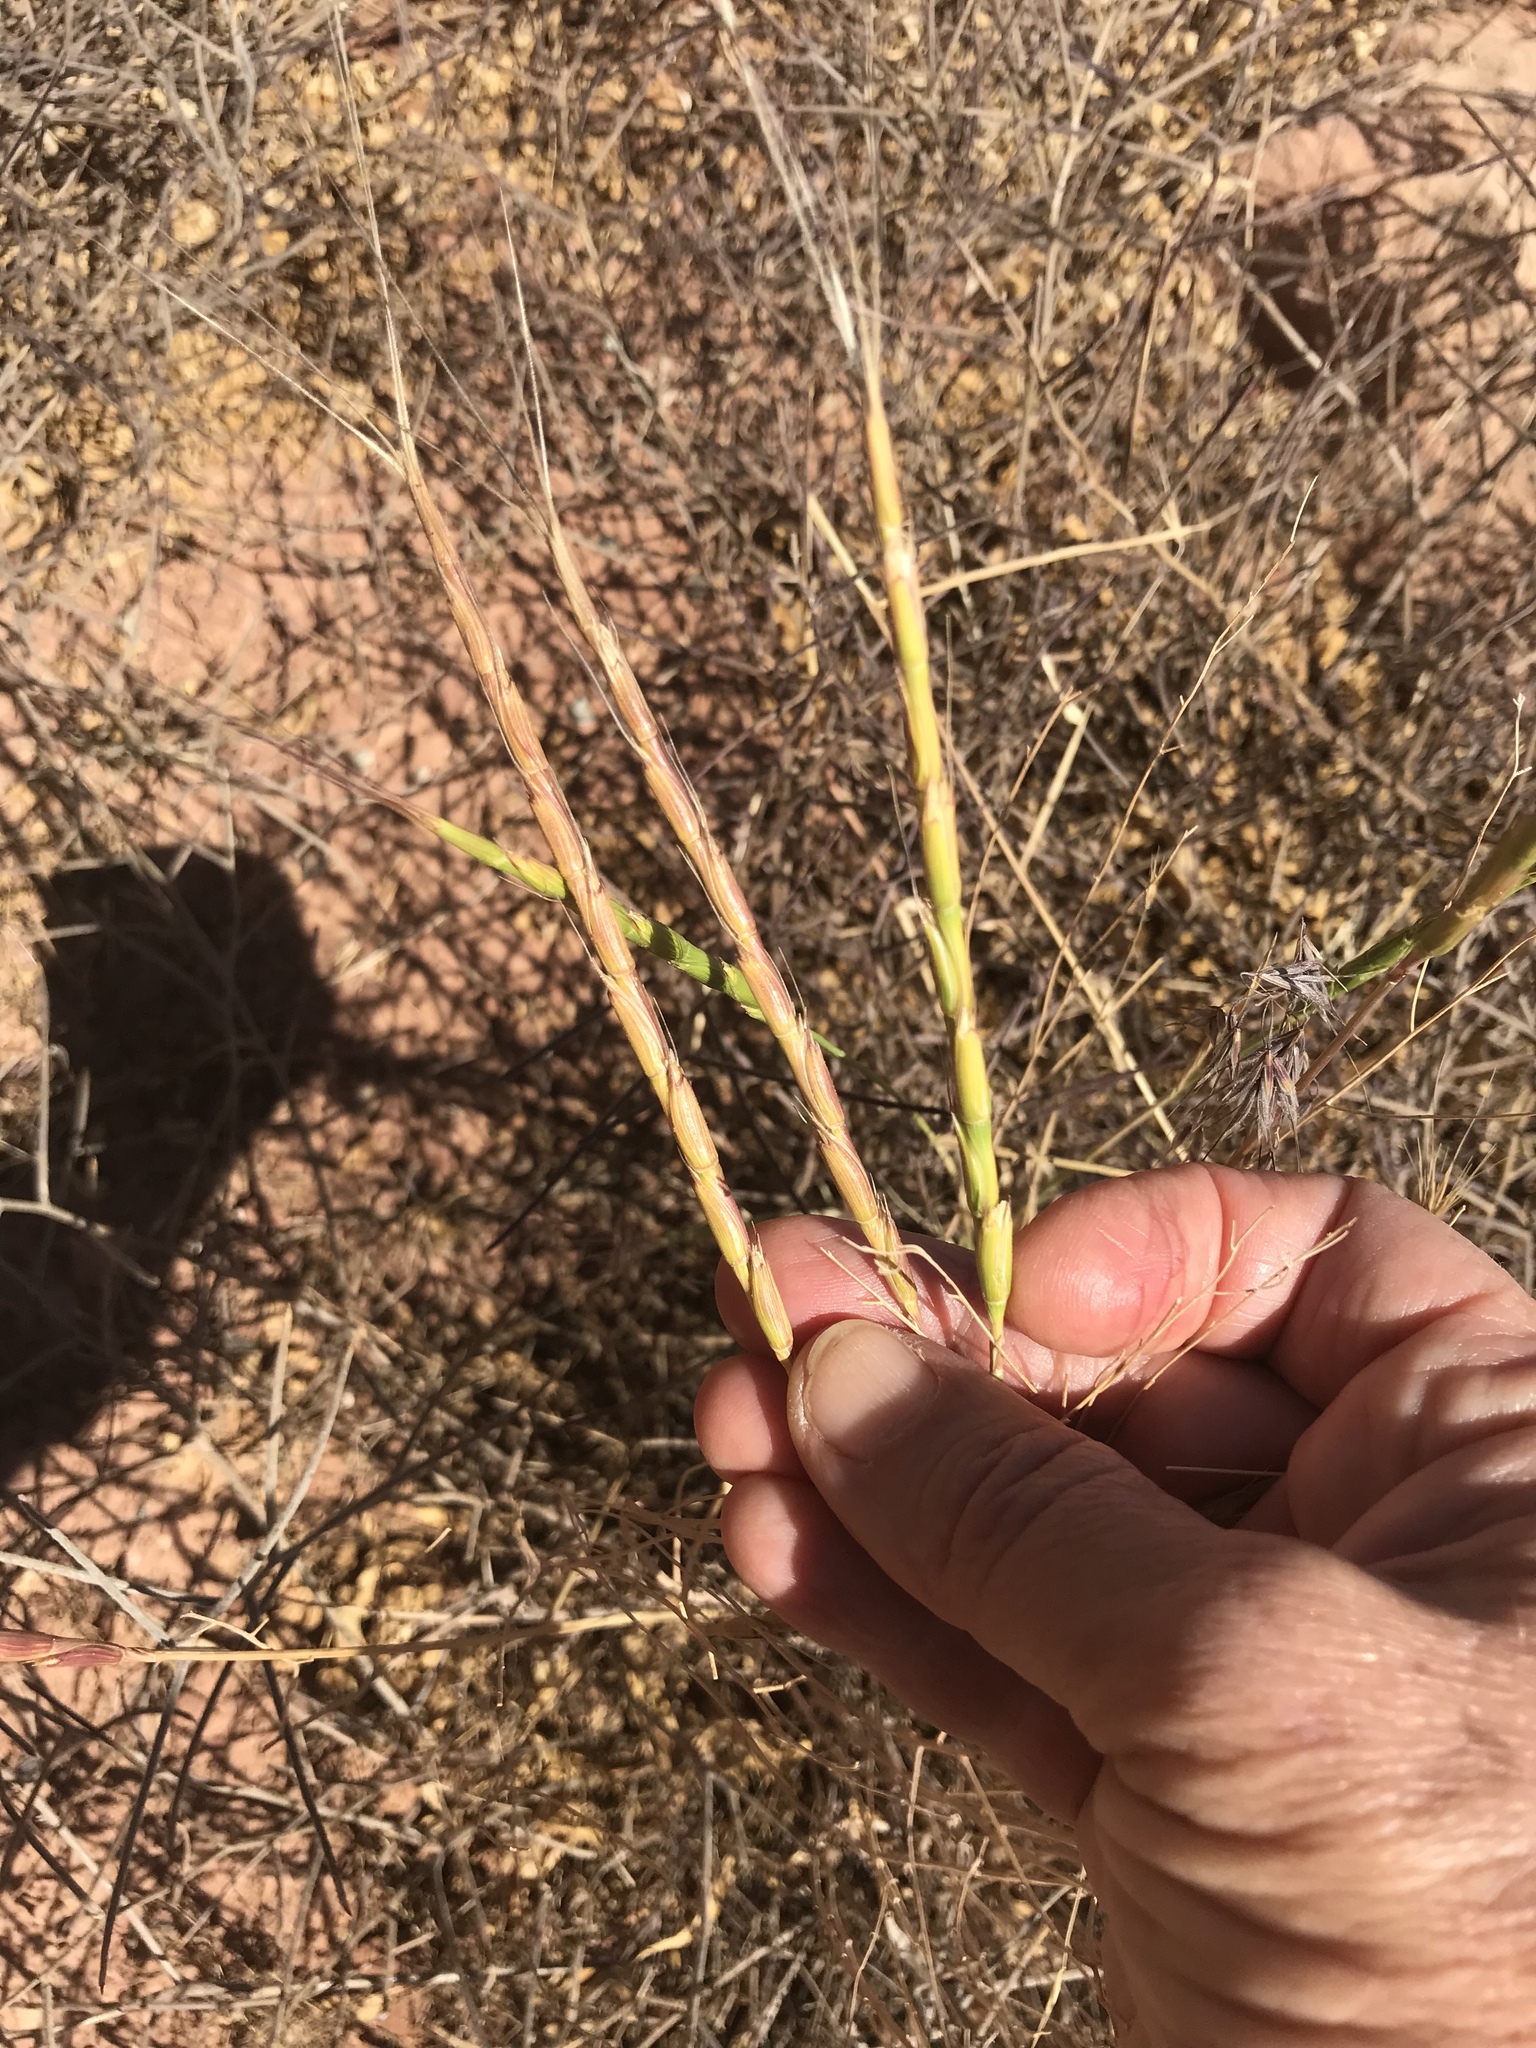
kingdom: Plantae
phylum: Tracheophyta
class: Liliopsida
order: Poales
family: Poaceae
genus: Aegilops
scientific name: Aegilops cylindrica
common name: Jointed goatgrass
